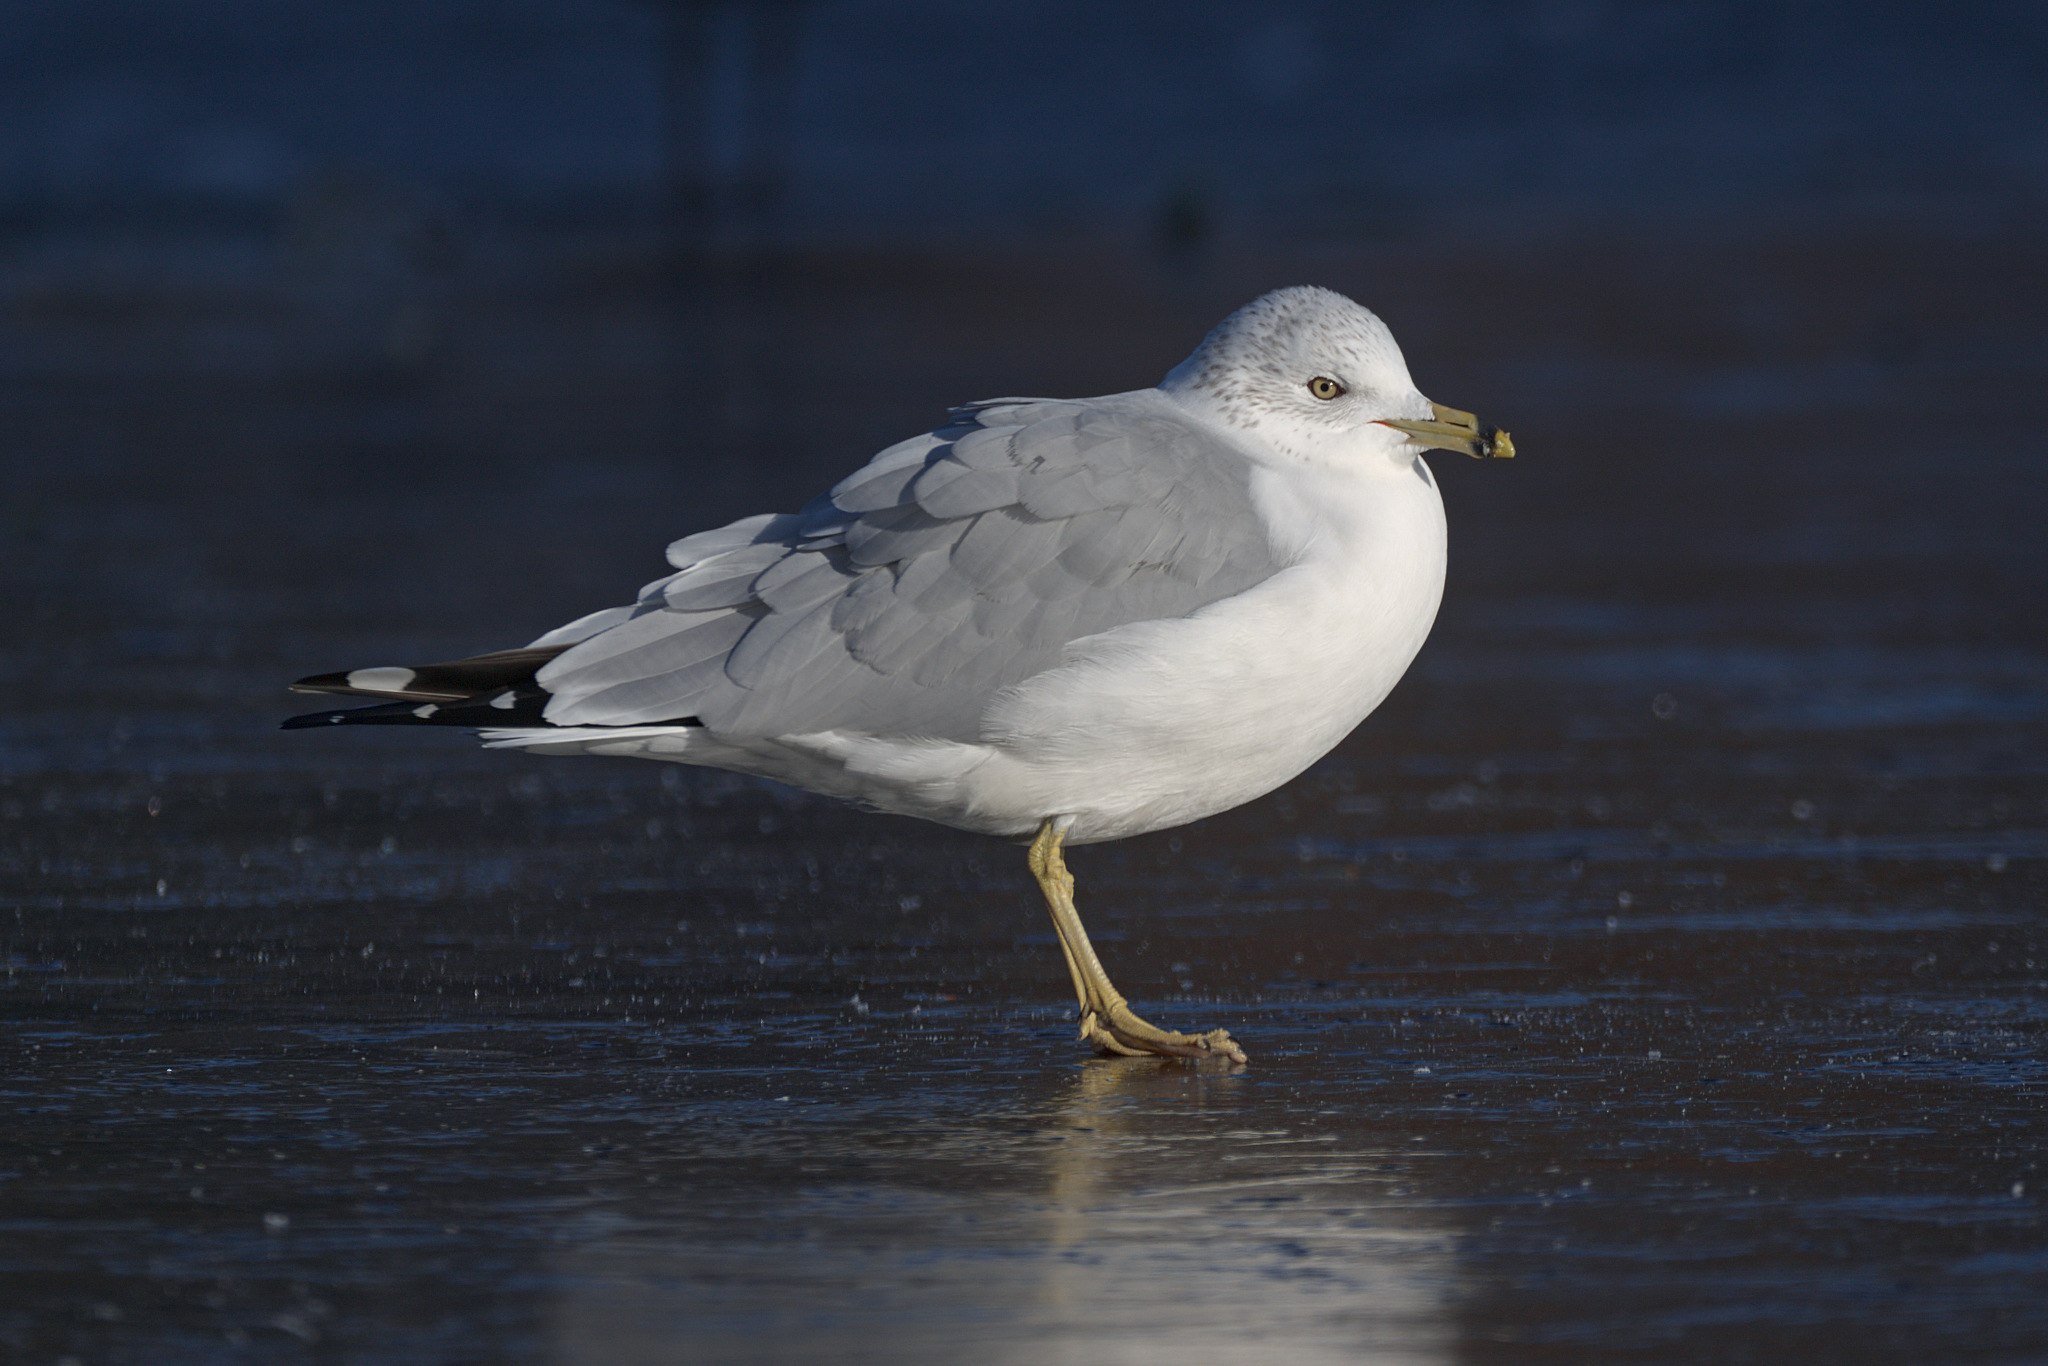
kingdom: Animalia
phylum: Chordata
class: Aves
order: Charadriiformes
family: Laridae
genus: Larus
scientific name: Larus delawarensis
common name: Ring-billed gull
